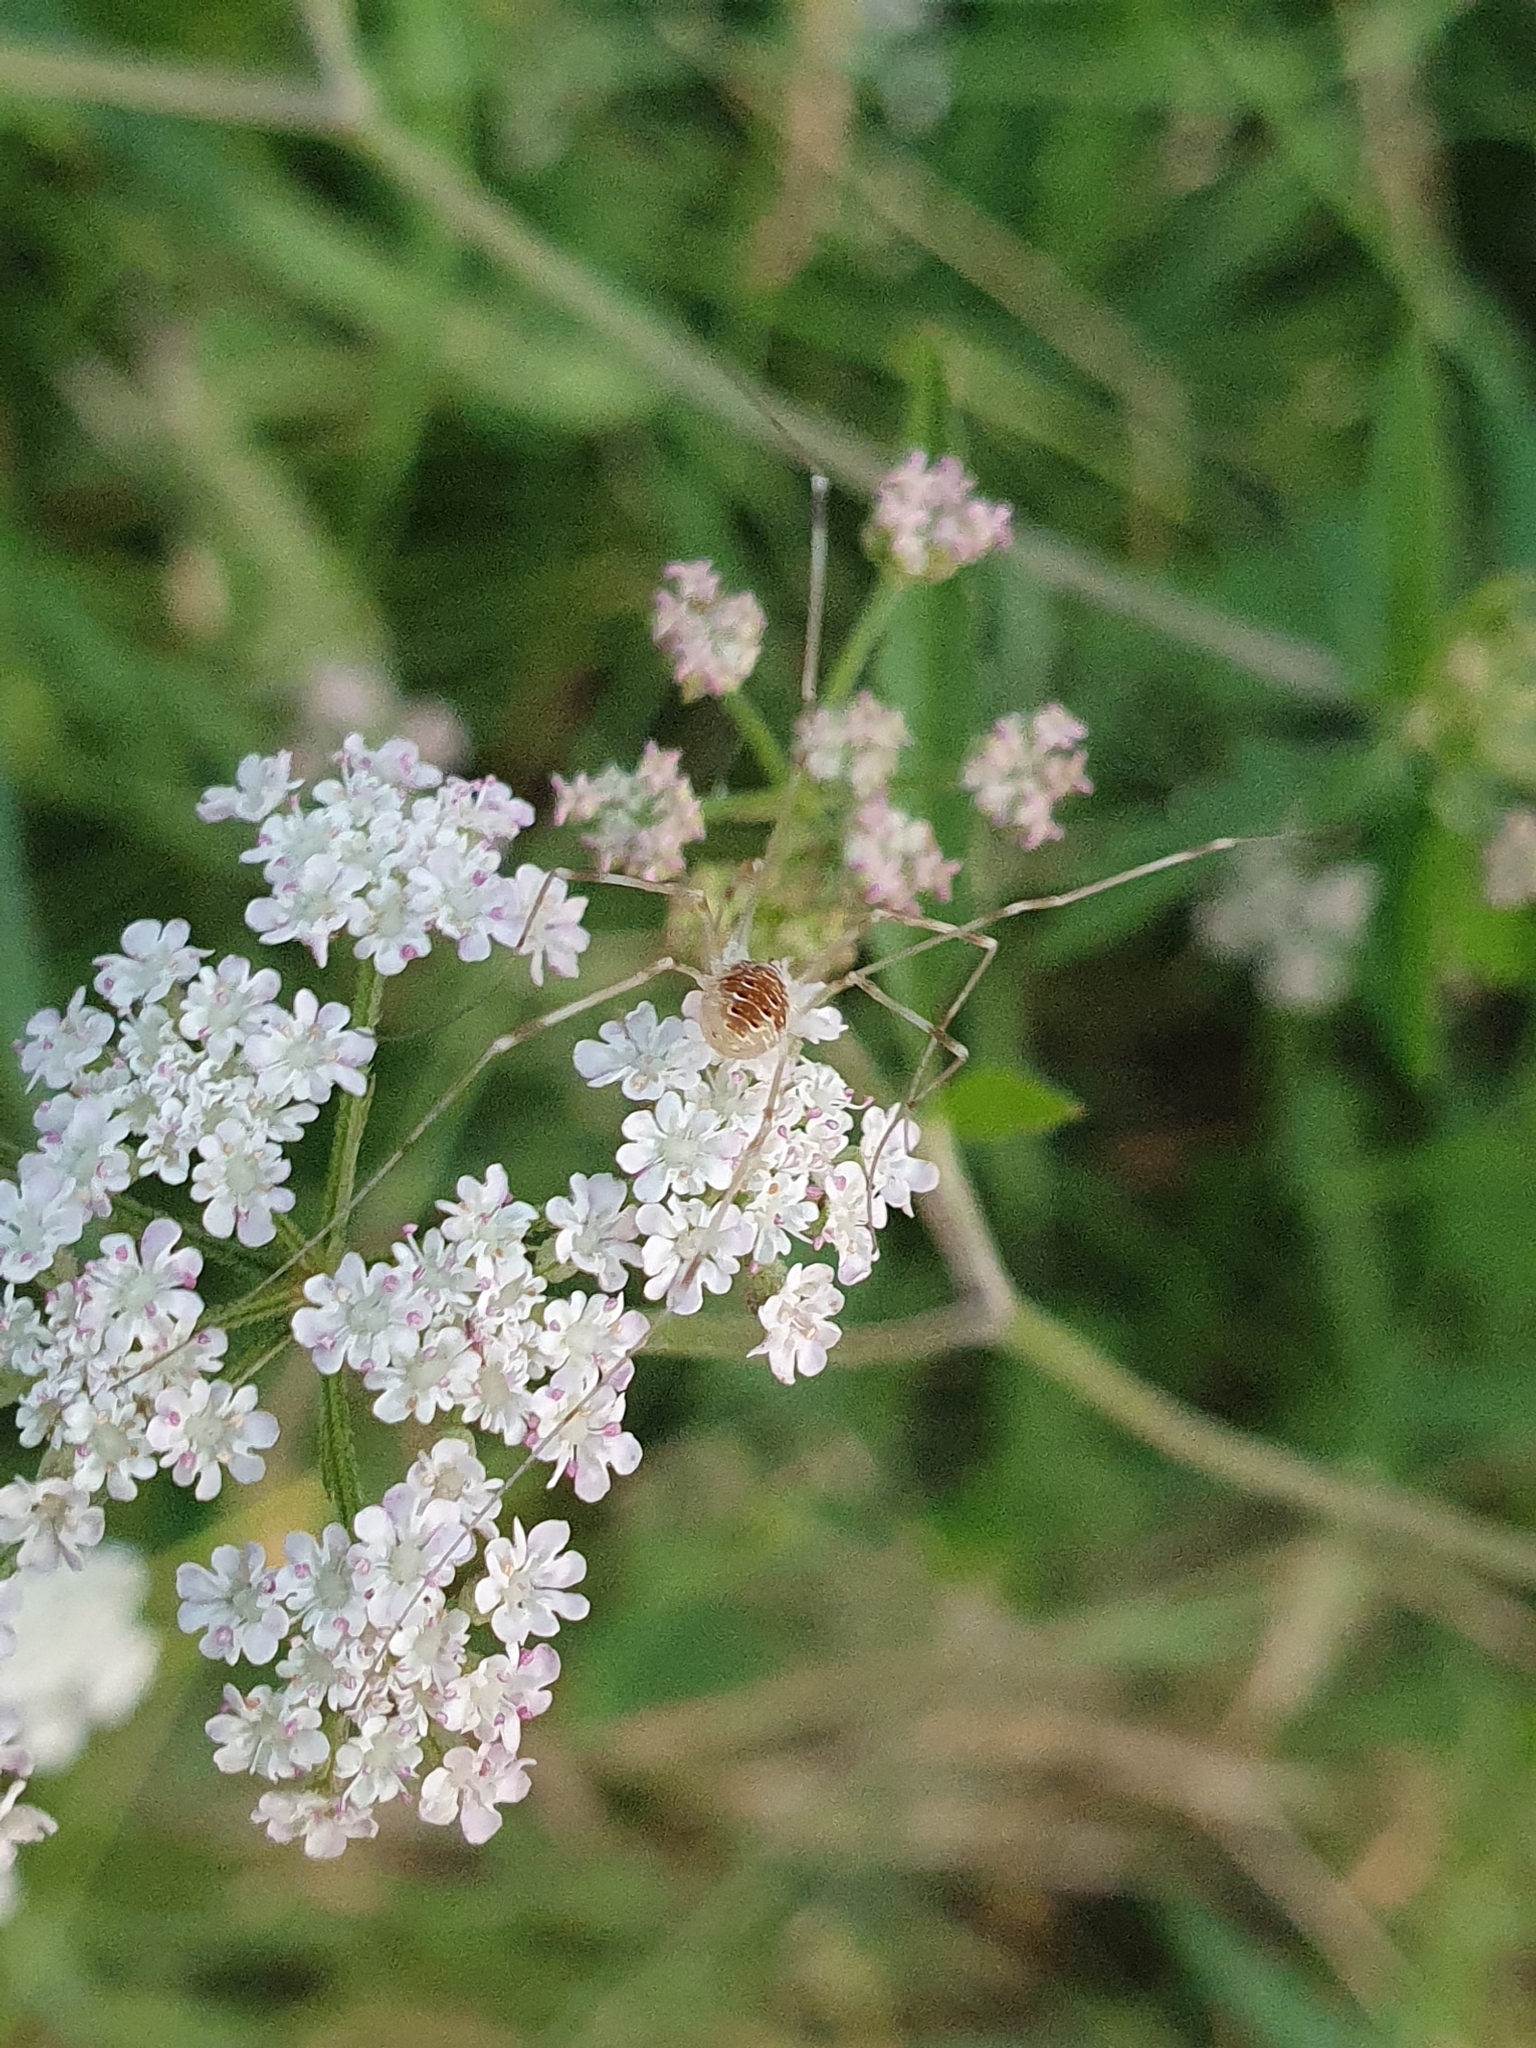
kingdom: Animalia
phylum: Arthropoda
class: Arachnida
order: Opiliones
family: Phalangiidae
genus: Opilio
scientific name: Opilio canestrinii
